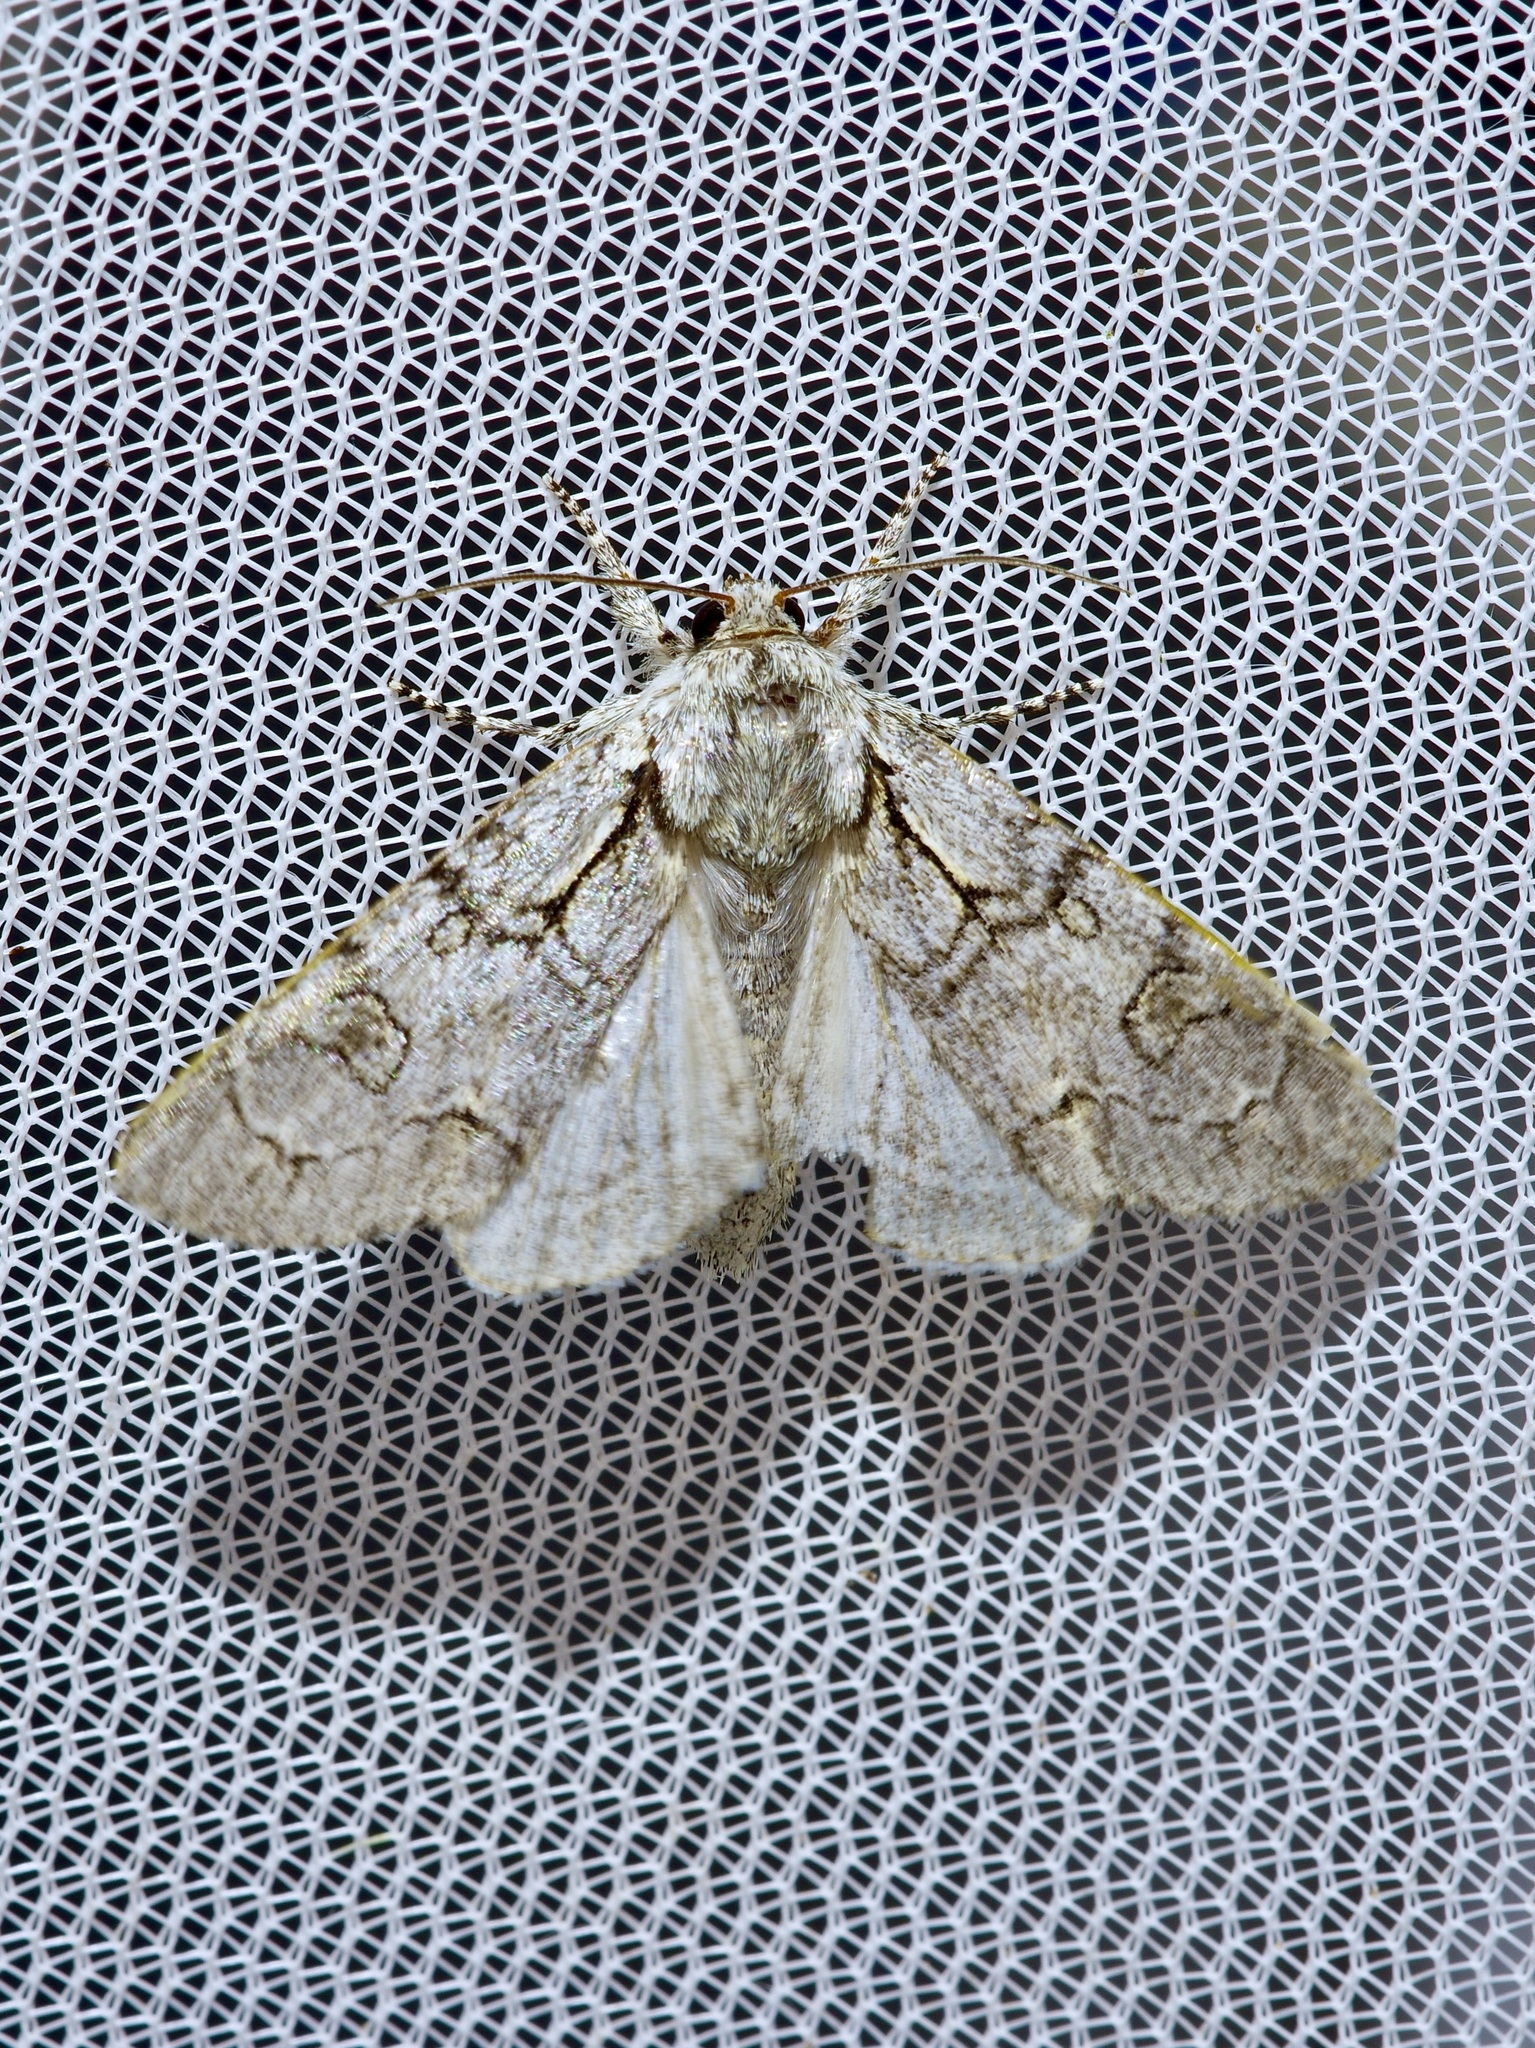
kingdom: Animalia
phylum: Arthropoda
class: Insecta
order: Lepidoptera
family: Noctuidae
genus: Acronicta
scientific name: Acronicta tota
